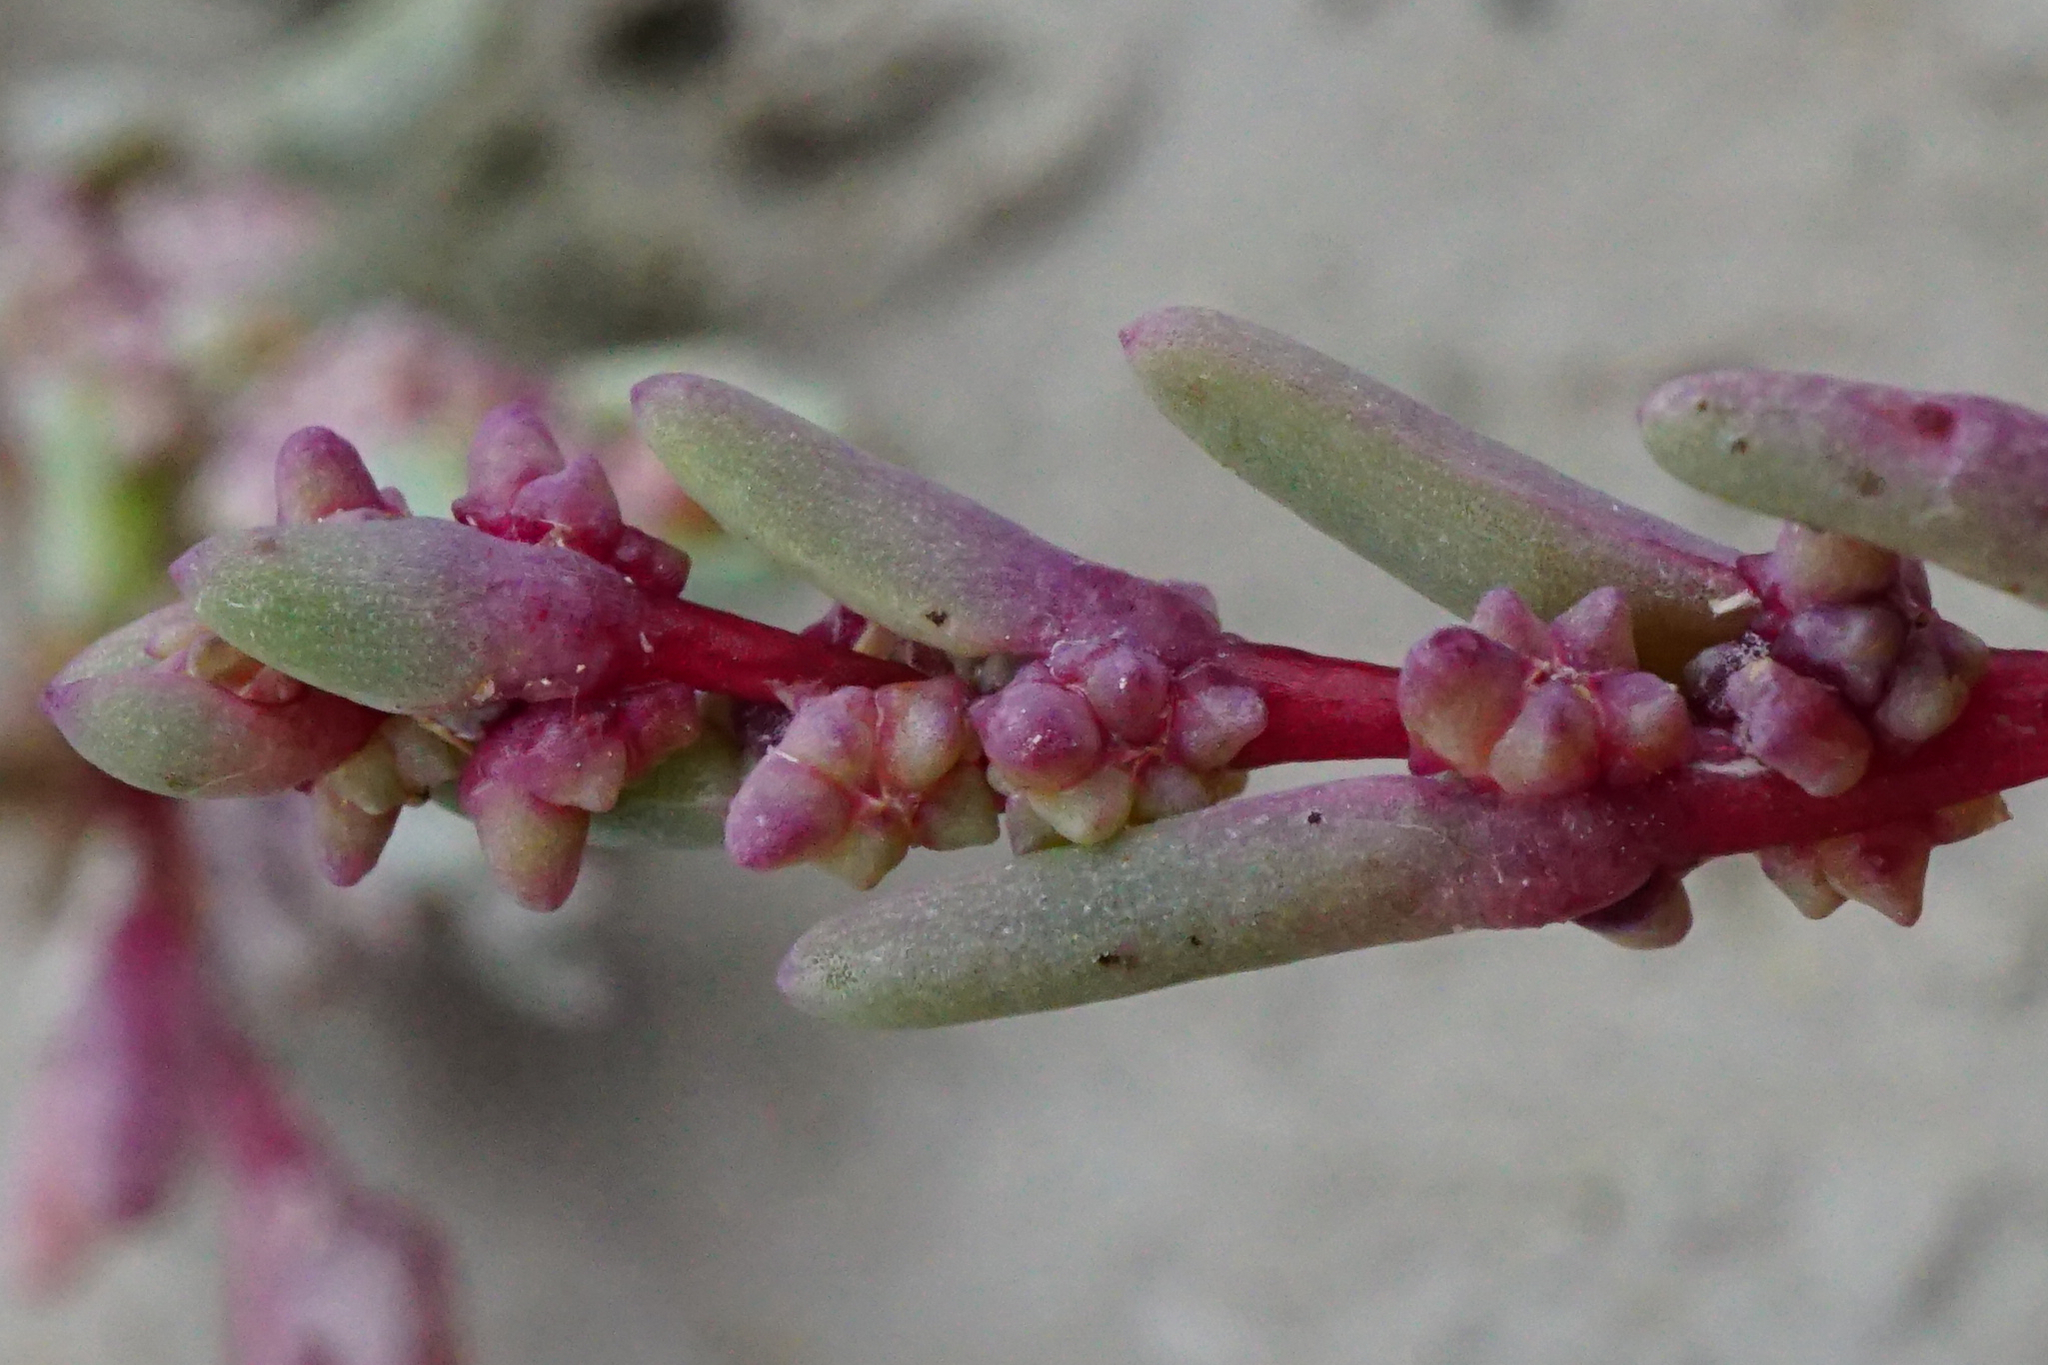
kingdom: Plantae
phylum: Tracheophyta
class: Magnoliopsida
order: Caryophyllales
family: Amaranthaceae
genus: Suaeda
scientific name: Suaeda pannonica
